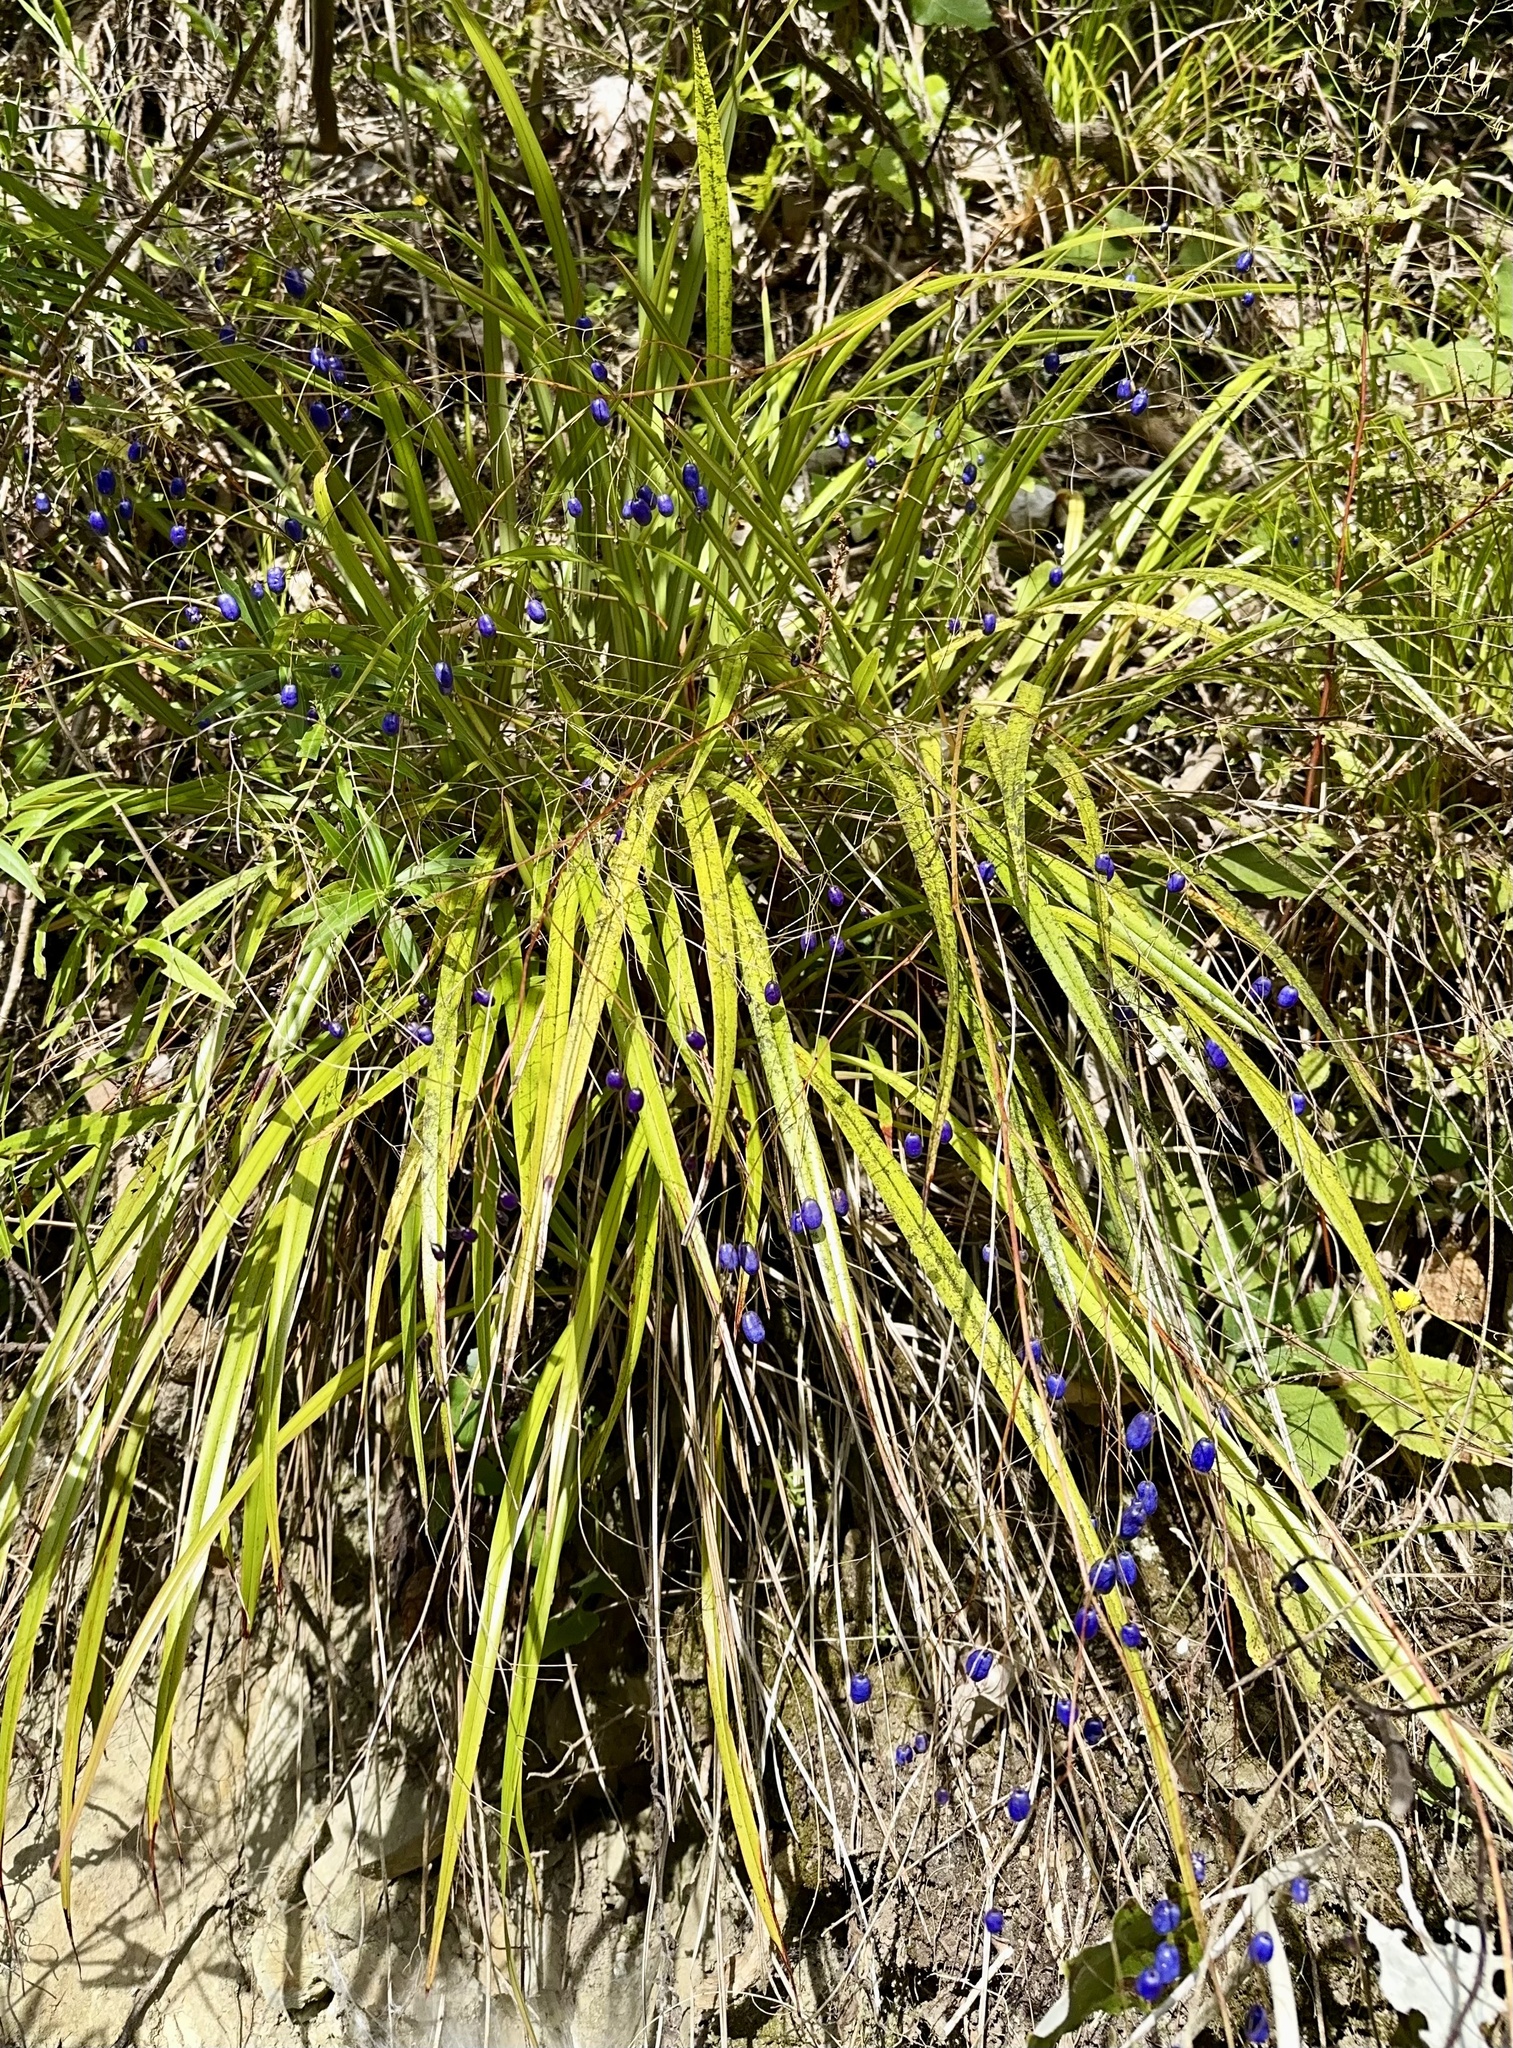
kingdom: Plantae
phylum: Tracheophyta
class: Liliopsida
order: Asparagales
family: Asphodelaceae
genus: Dianella
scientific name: Dianella nigra
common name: New zealand-blueberry
